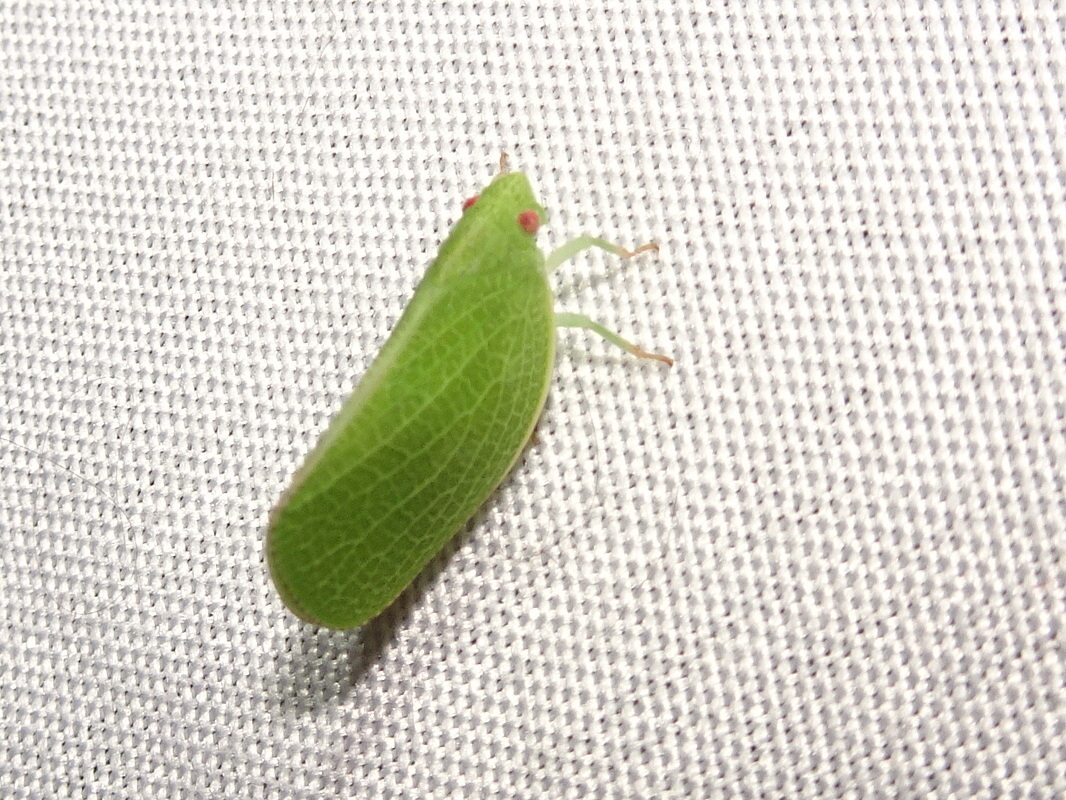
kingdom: Animalia
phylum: Arthropoda
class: Insecta
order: Hemiptera
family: Acanaloniidae
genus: Acanalonia
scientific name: Acanalonia conica
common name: Green cone-headed planthopper
